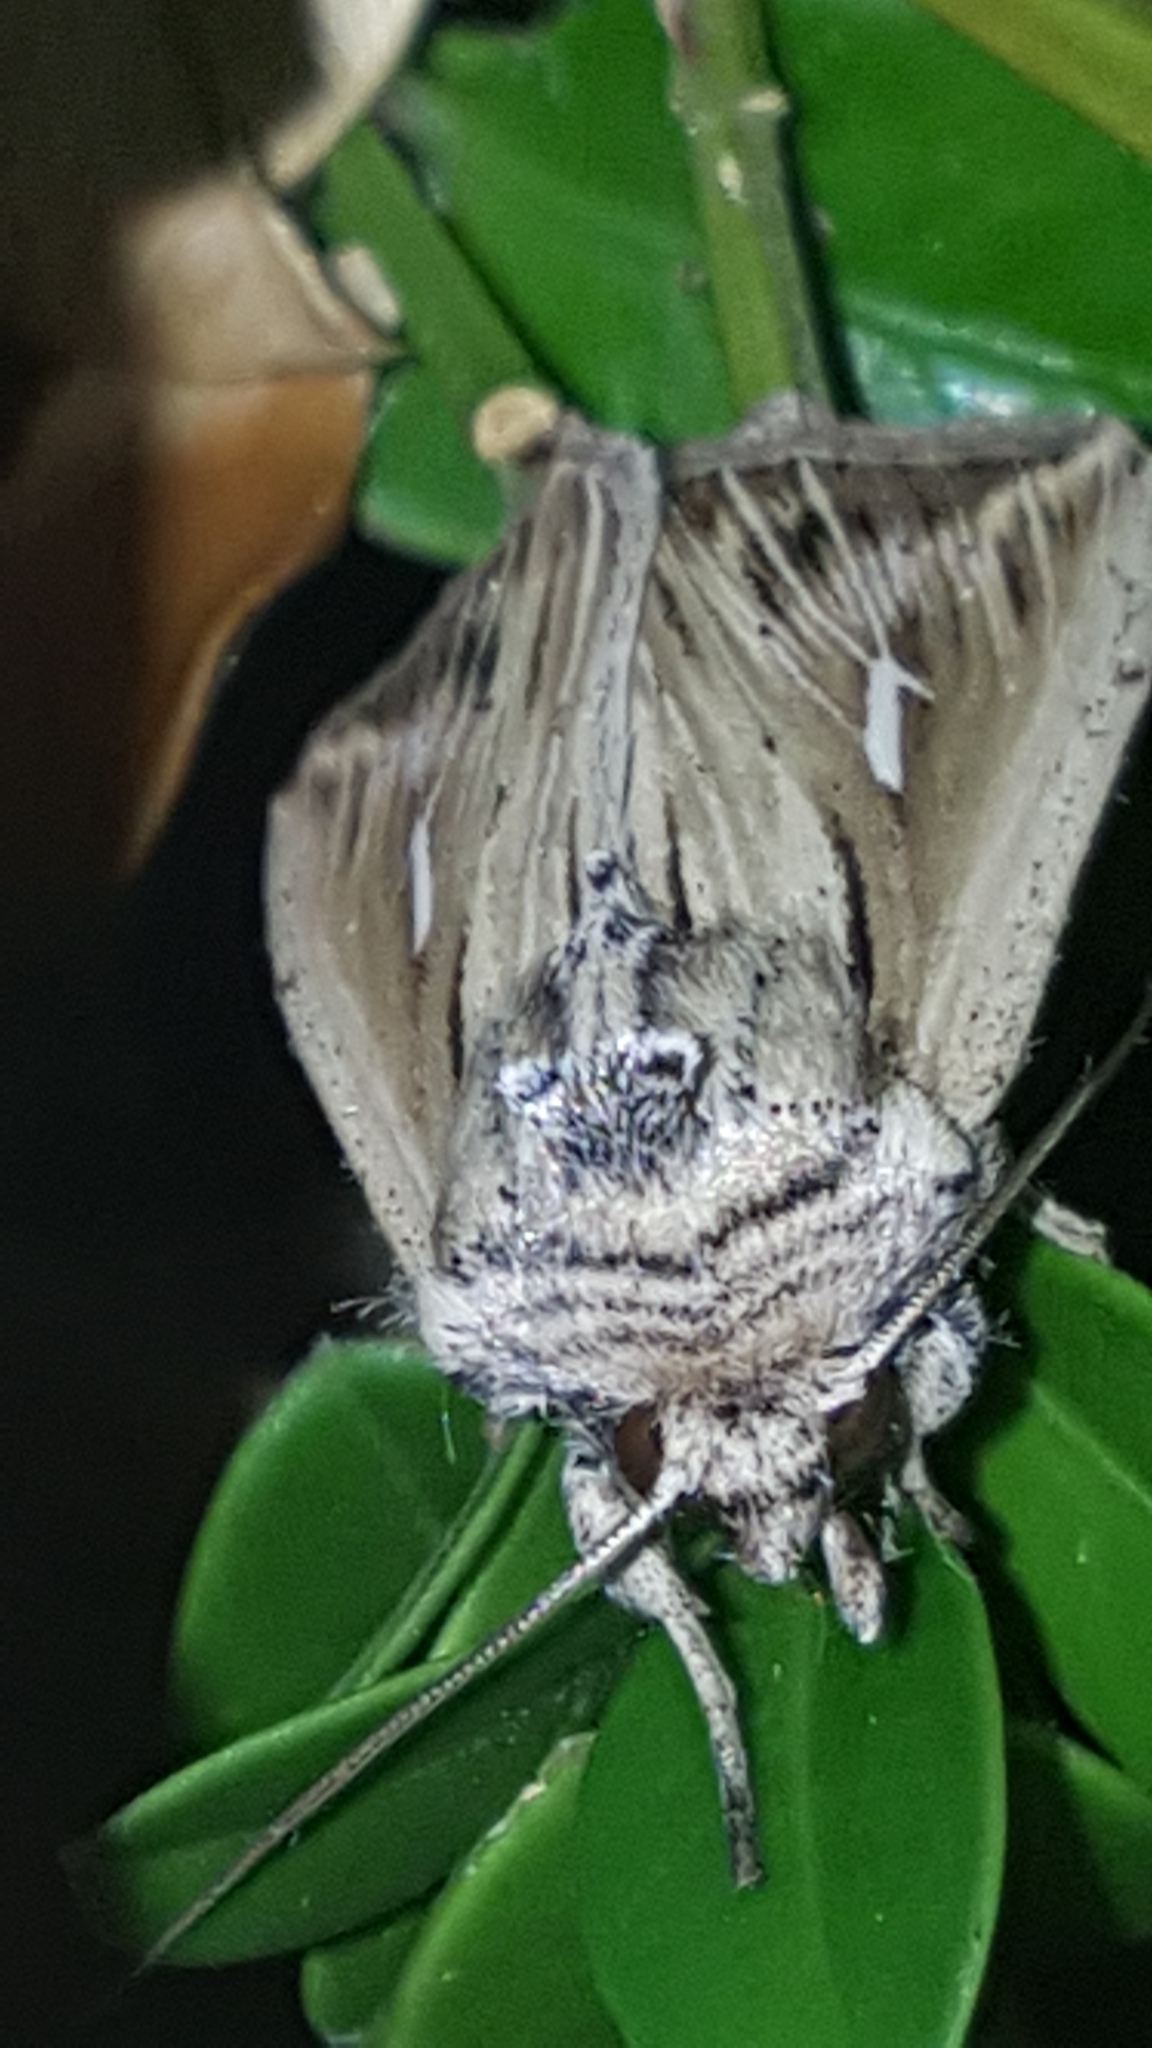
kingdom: Animalia
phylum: Arthropoda
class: Insecta
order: Lepidoptera
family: Noctuidae
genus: Mythimna
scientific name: Mythimna l-album
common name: L-album wainscot
